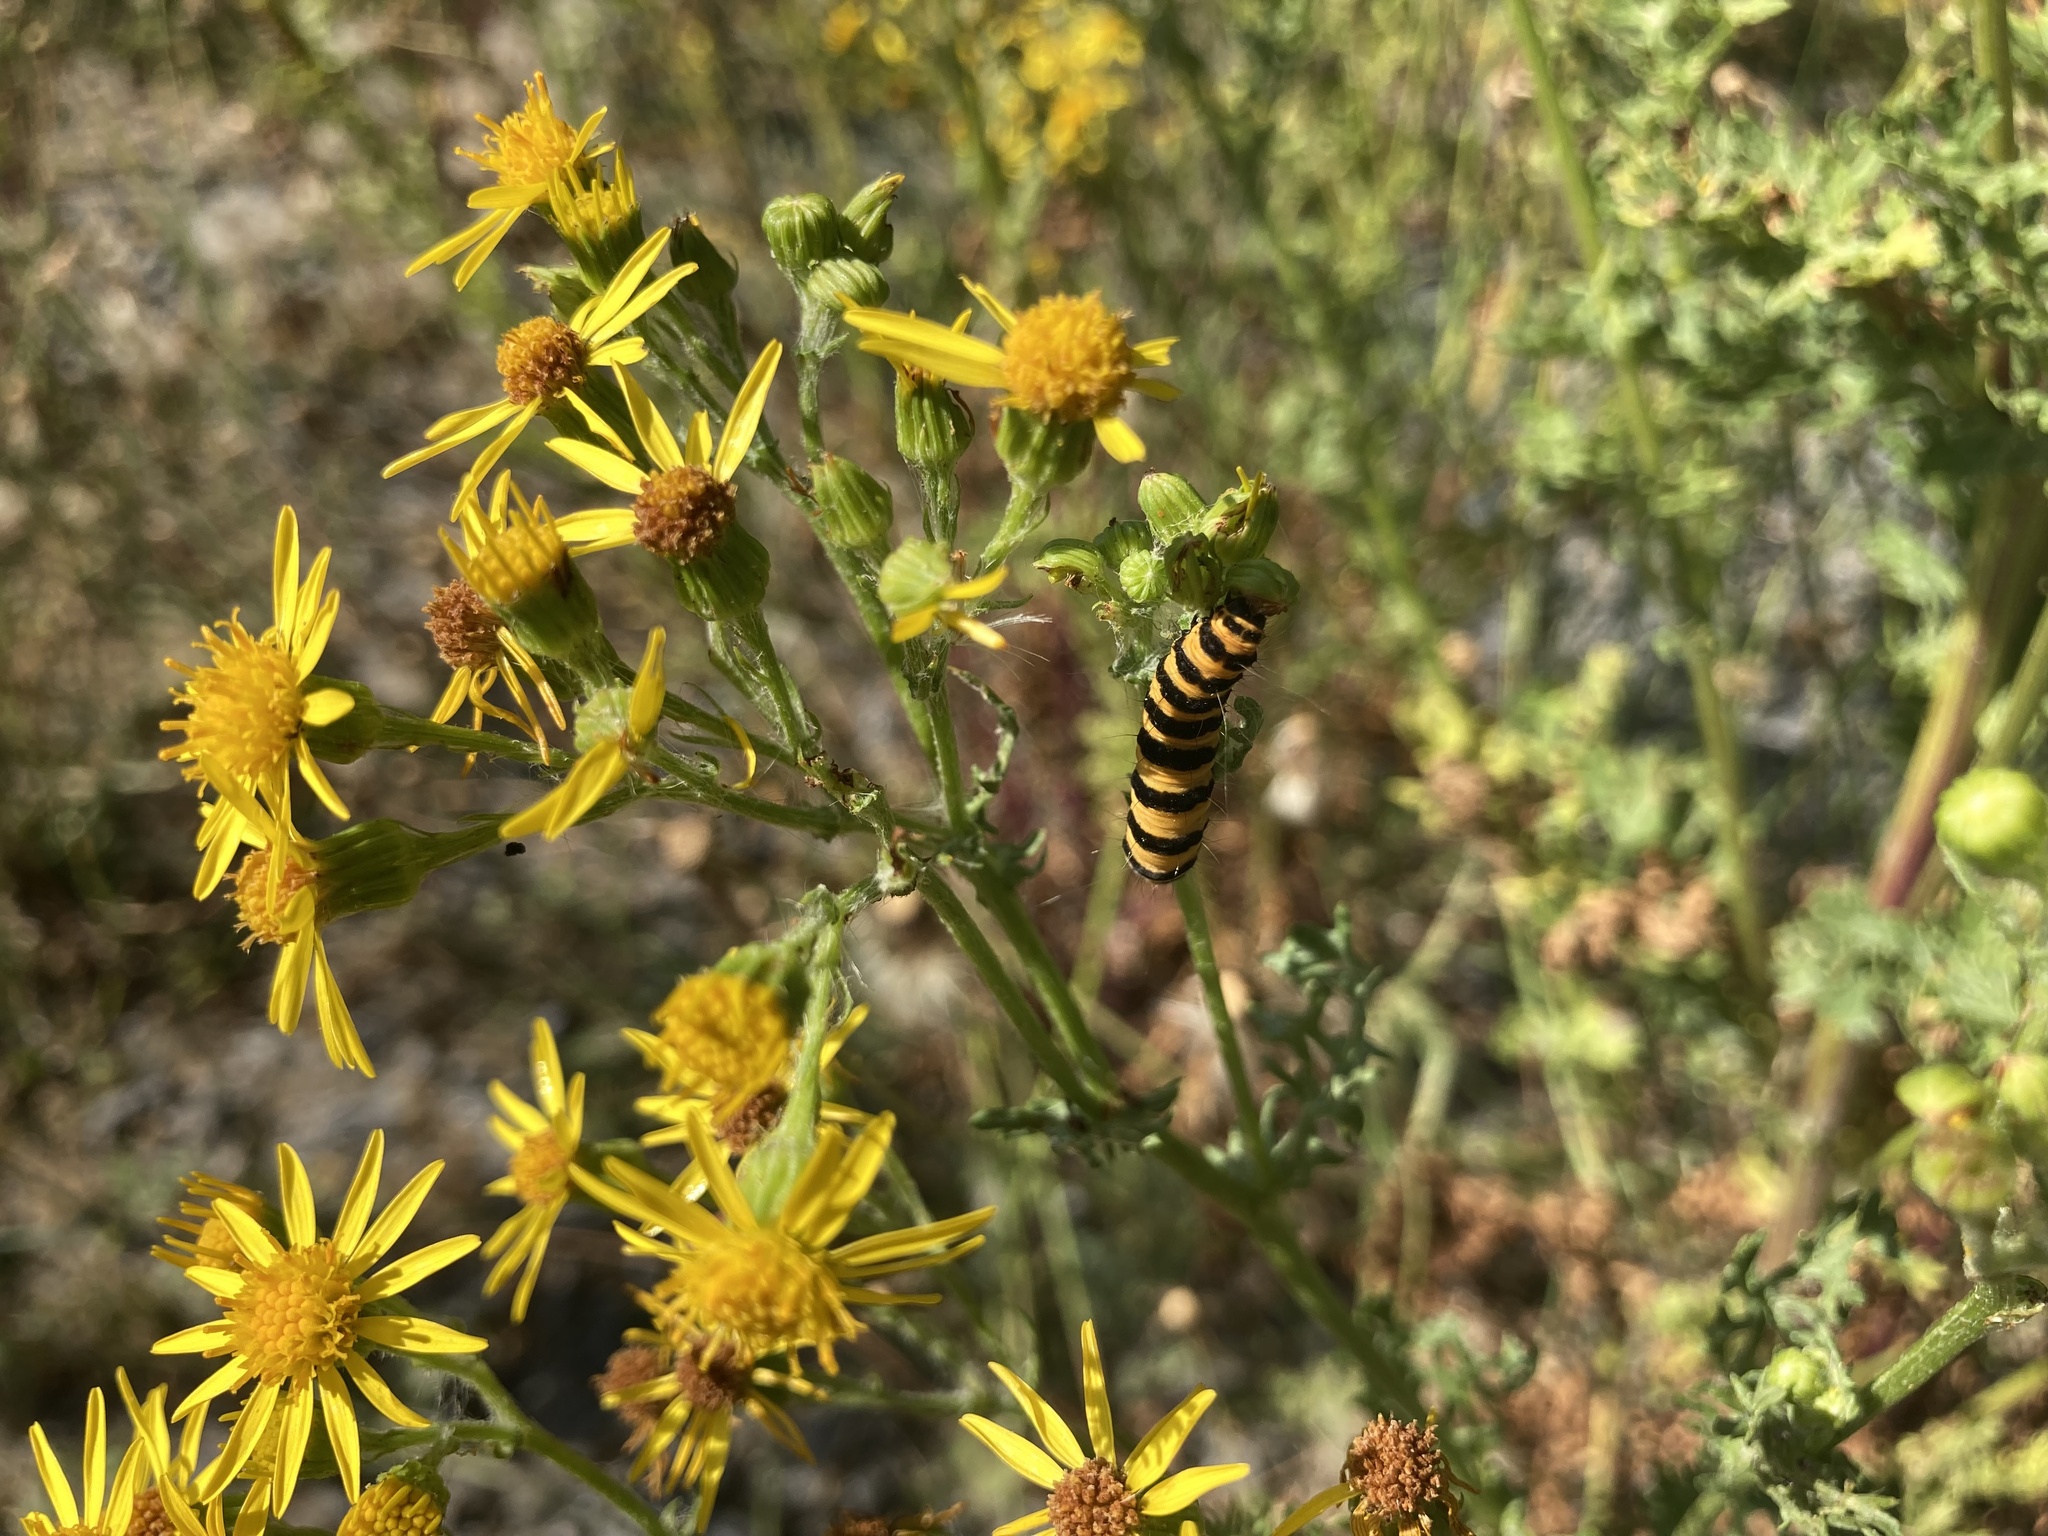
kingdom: Animalia
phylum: Arthropoda
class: Insecta
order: Lepidoptera
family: Erebidae
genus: Tyria
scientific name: Tyria jacobaeae
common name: Cinnabar
